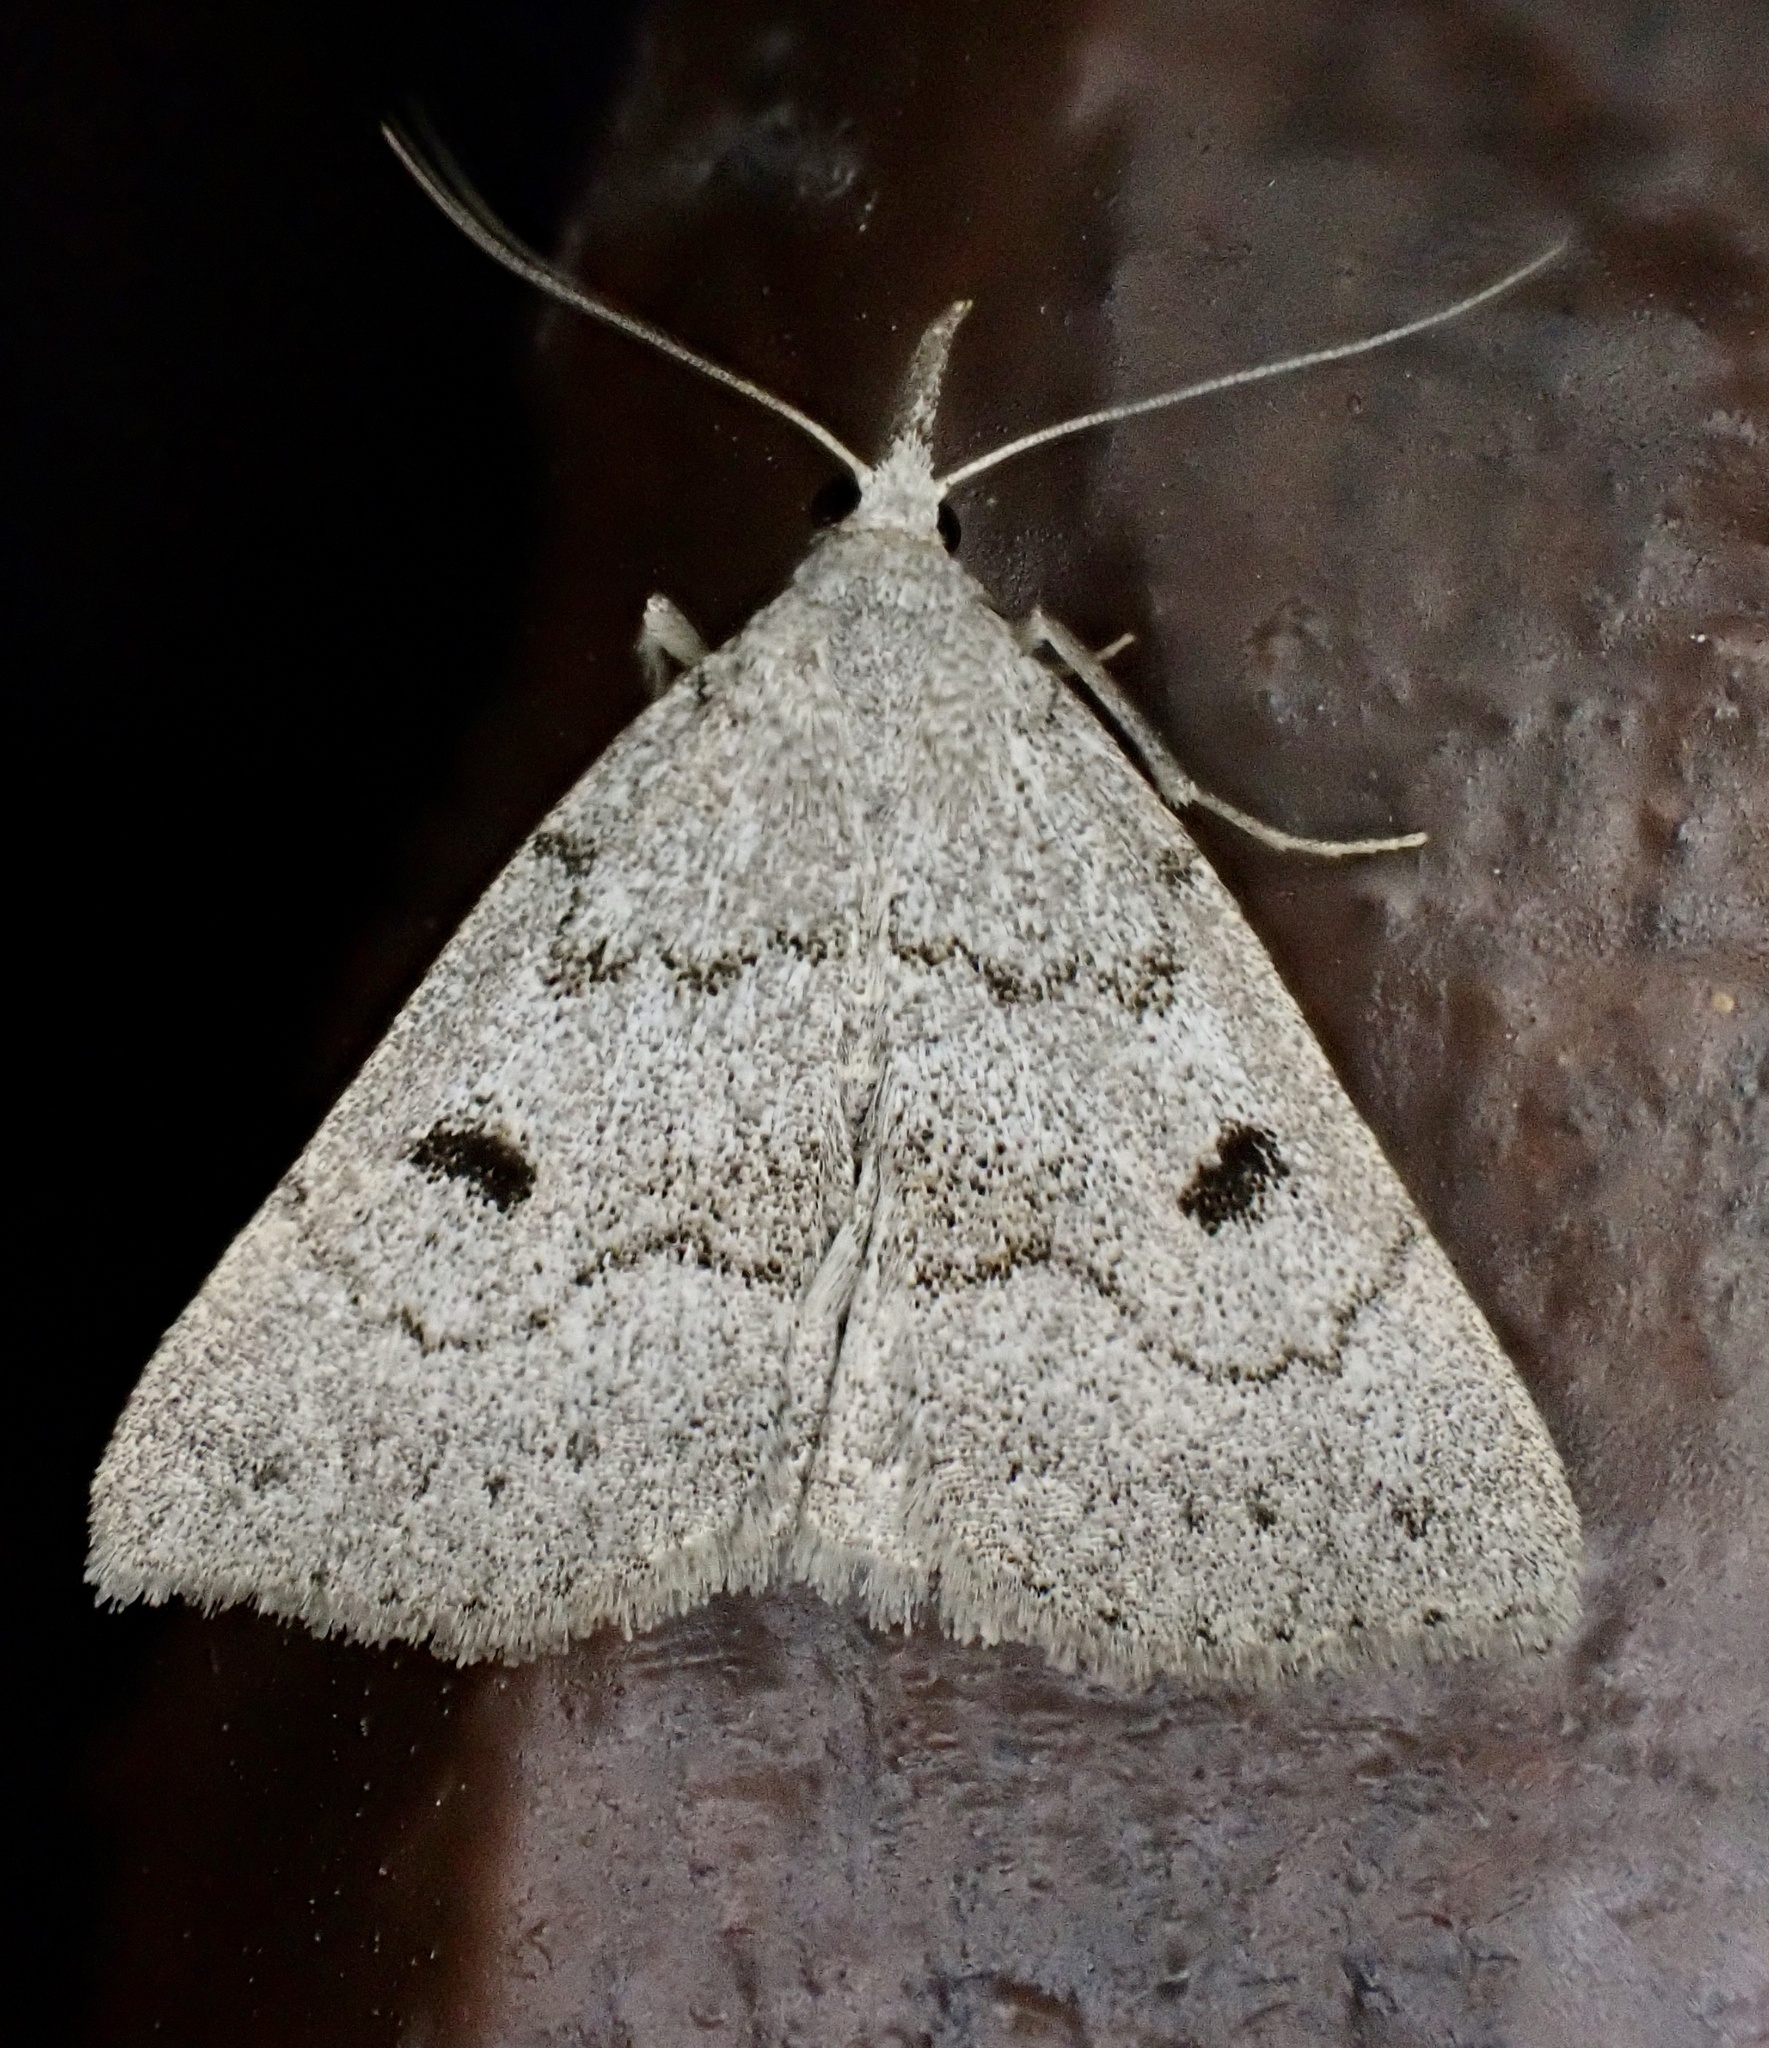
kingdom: Animalia
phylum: Arthropoda
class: Insecta
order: Lepidoptera
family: Erebidae
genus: Macrochilo
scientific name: Macrochilo morbidalis
